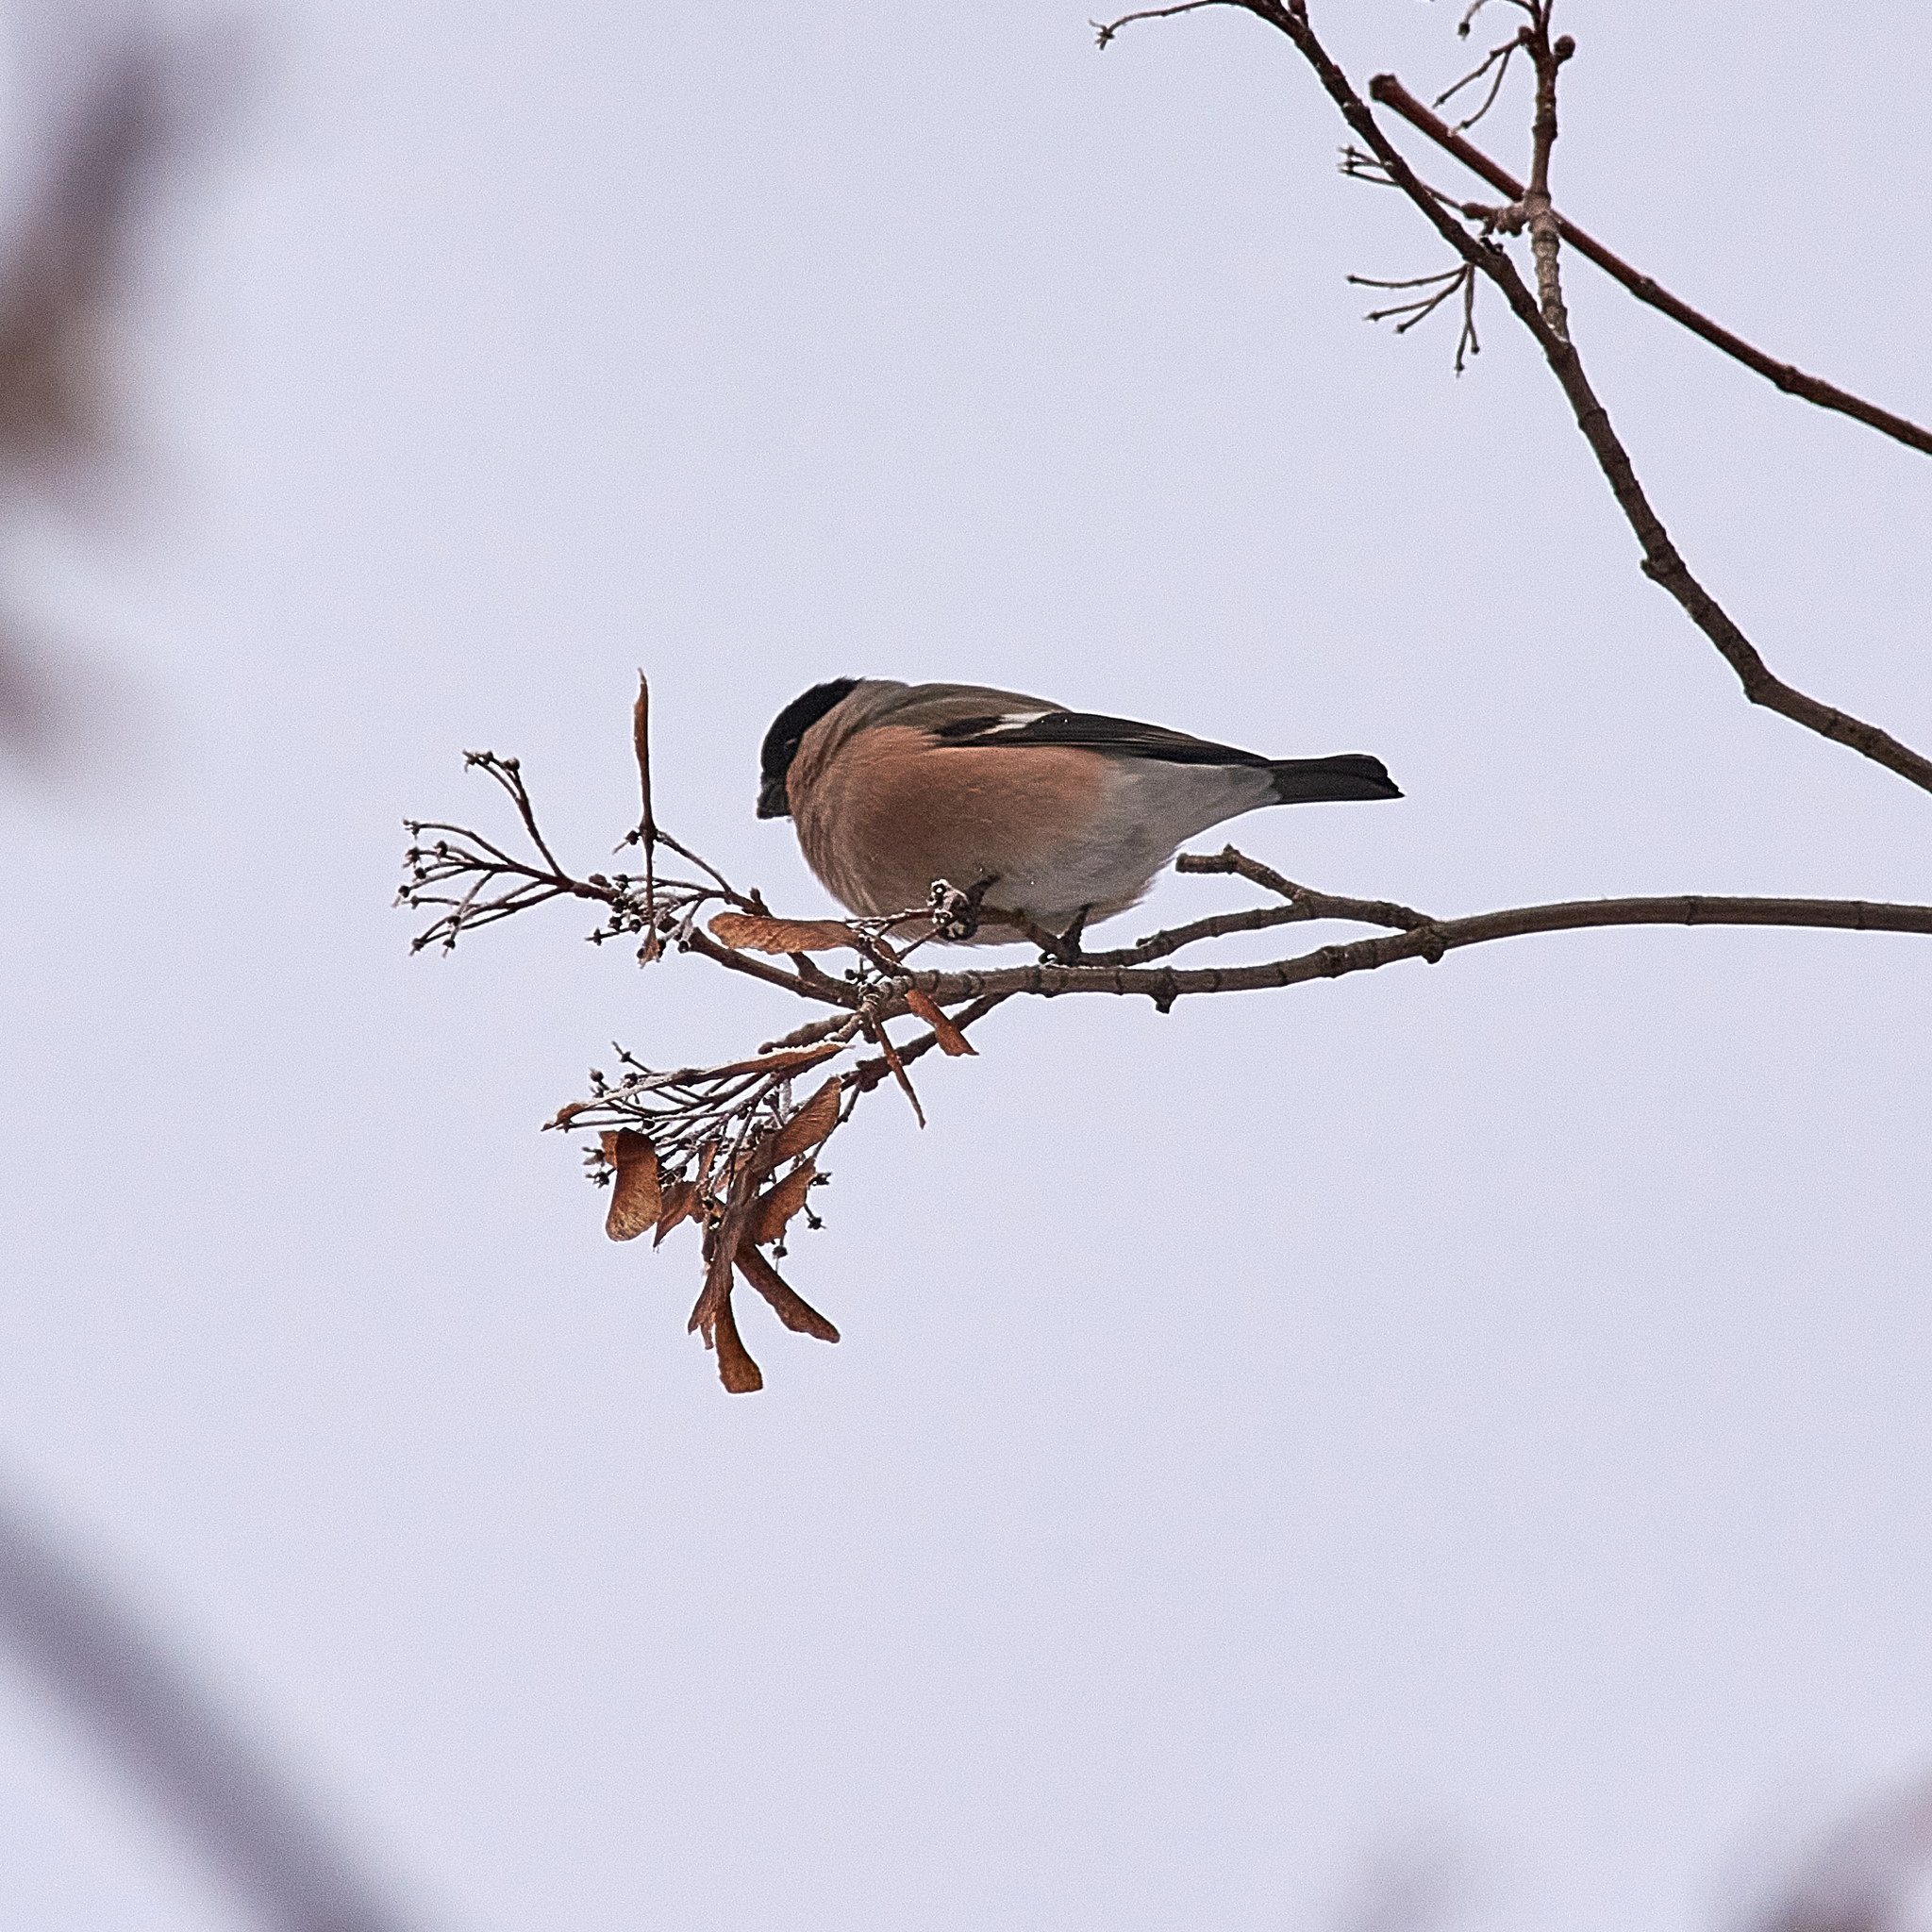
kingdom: Animalia
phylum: Chordata
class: Aves
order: Passeriformes
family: Fringillidae
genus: Pyrrhula
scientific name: Pyrrhula pyrrhula
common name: Eurasian bullfinch
